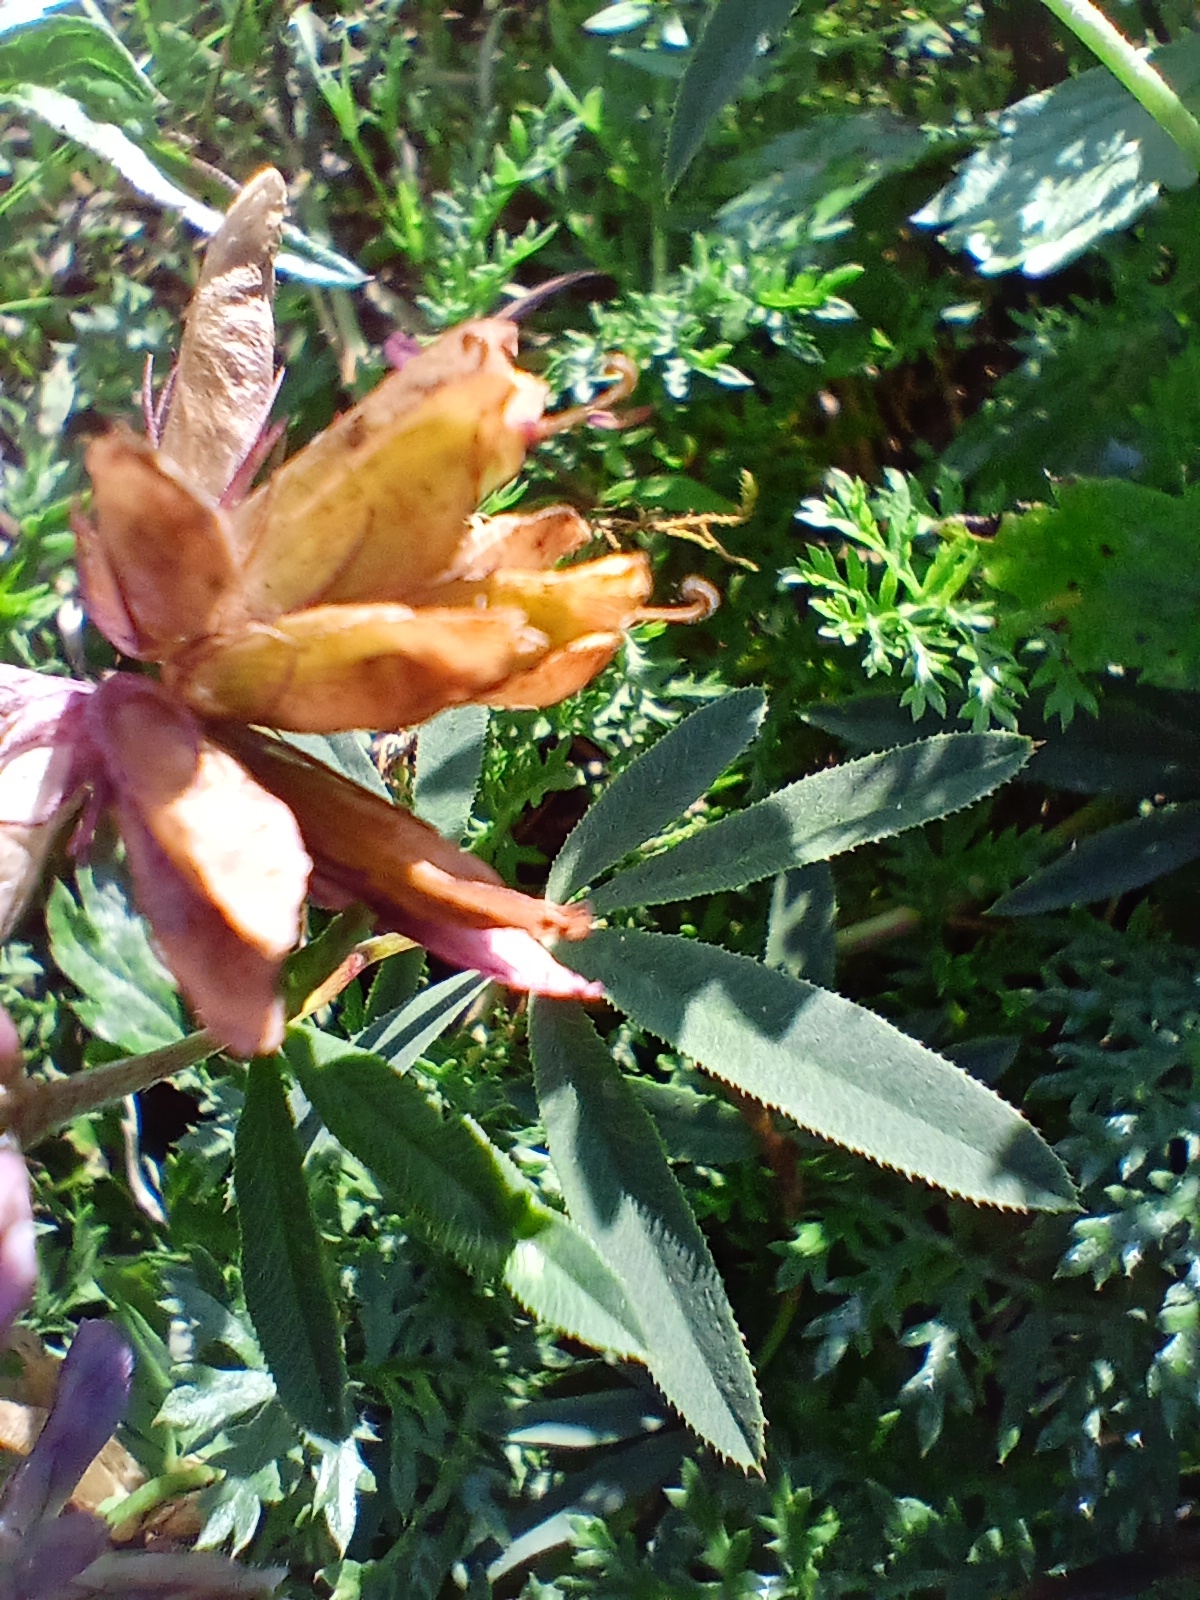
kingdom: Plantae
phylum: Tracheophyta
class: Magnoliopsida
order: Fabales
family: Fabaceae
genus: Trifolium
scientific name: Trifolium lupinaster
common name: Lupine clover
